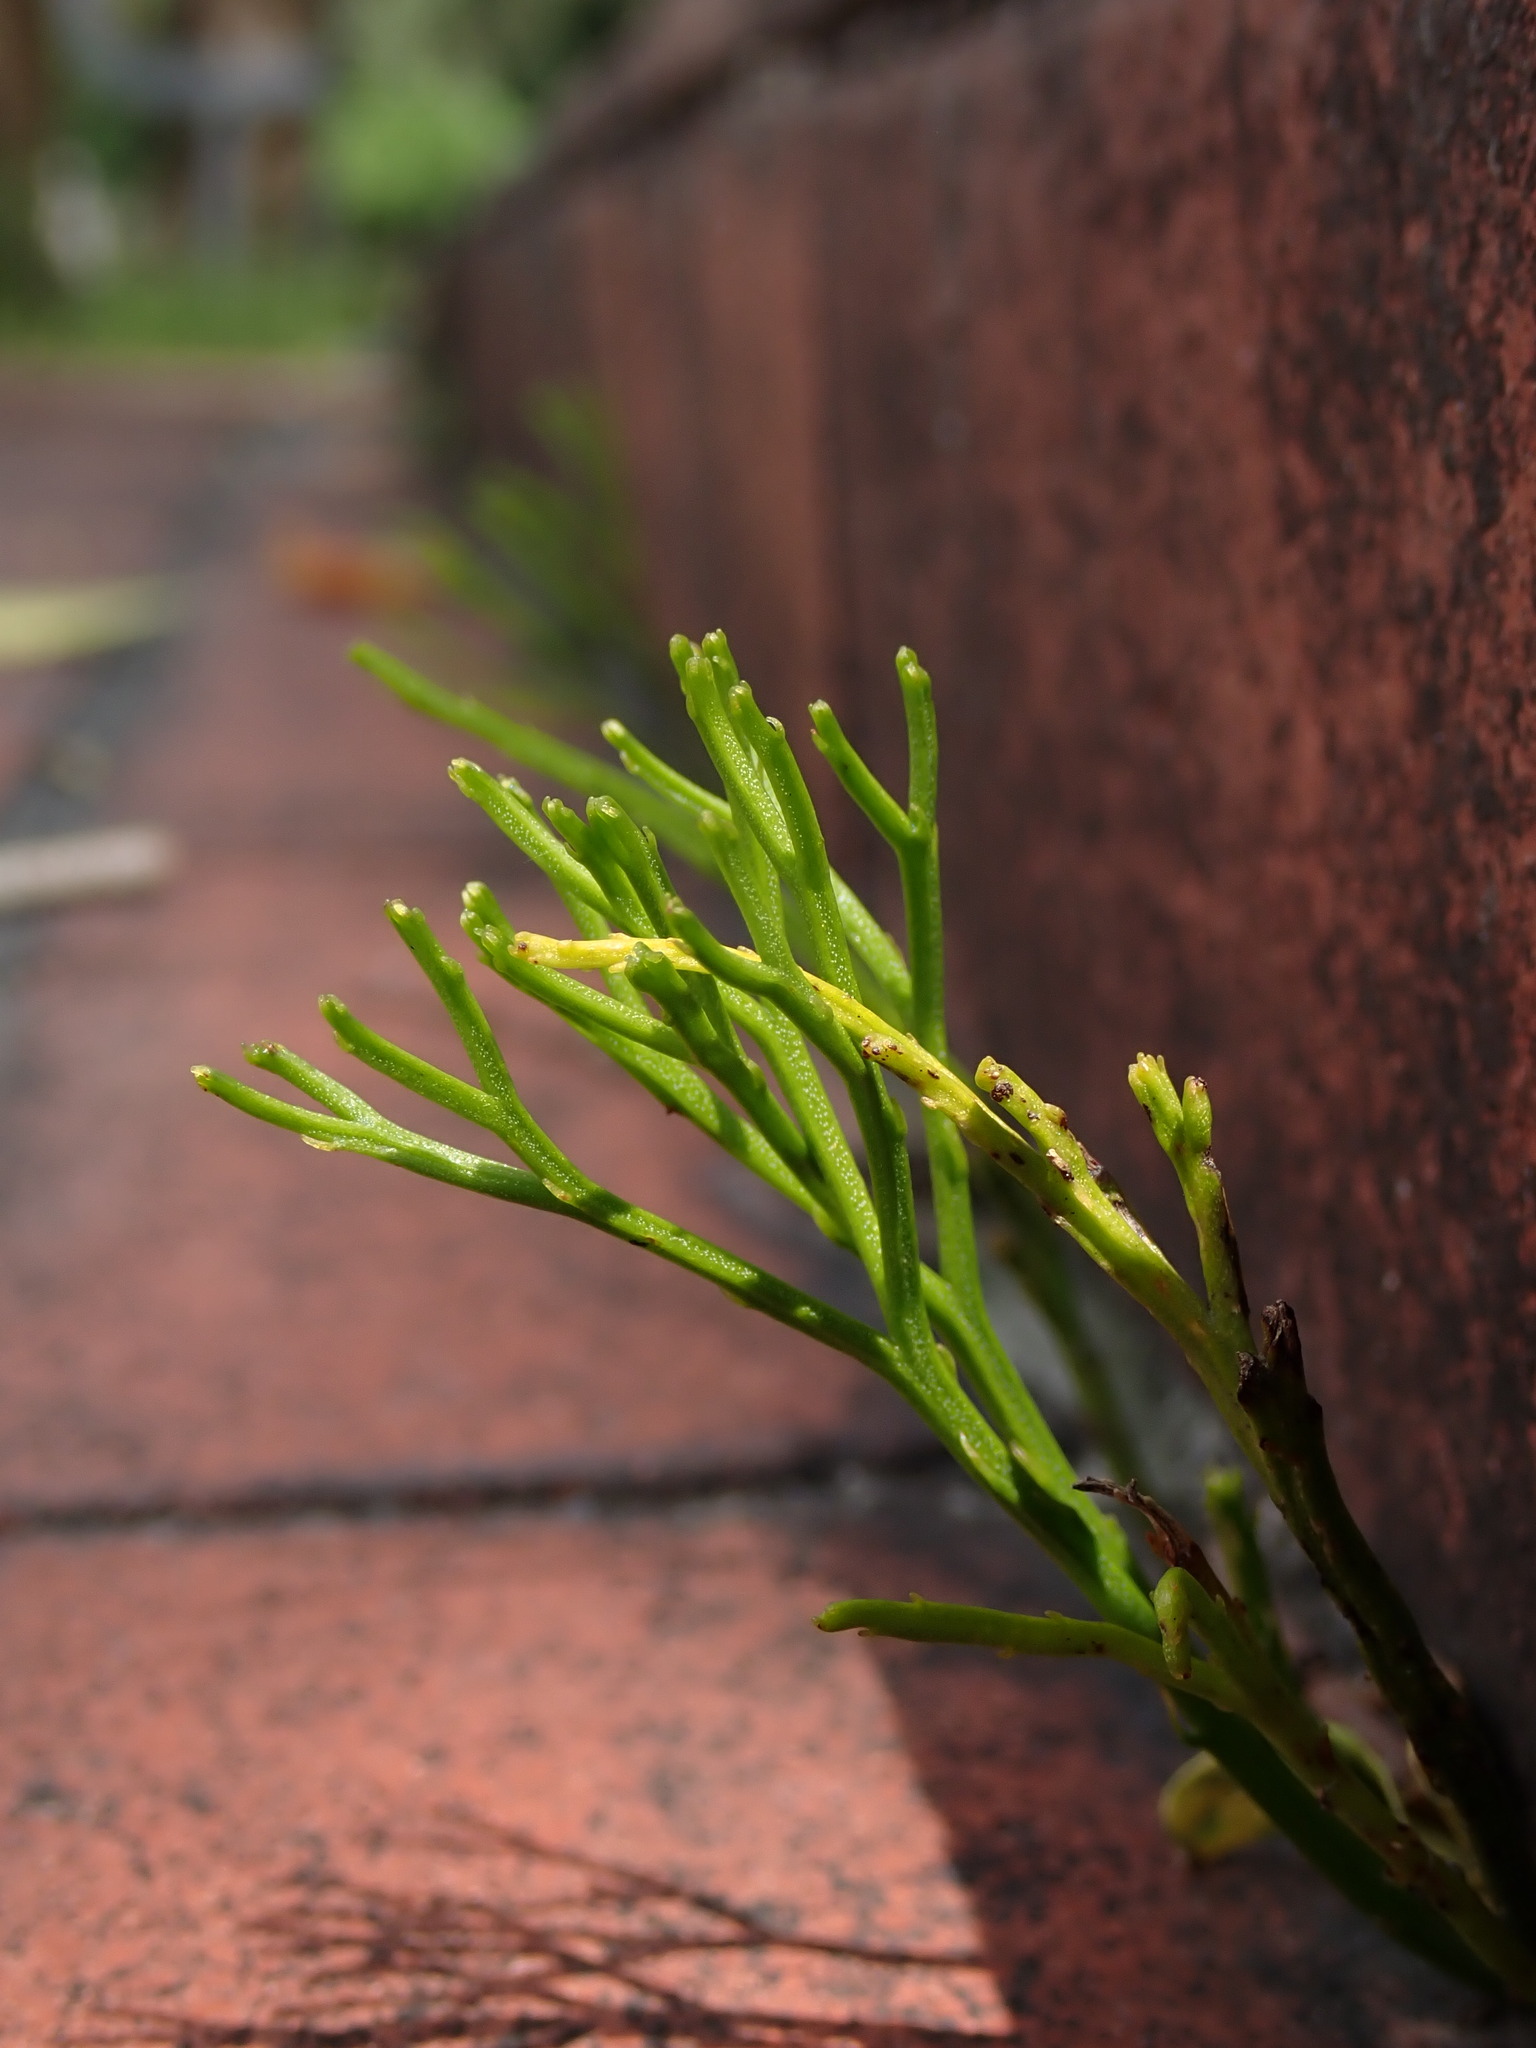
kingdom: Plantae
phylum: Tracheophyta
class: Polypodiopsida
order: Psilotales
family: Psilotaceae
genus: Psilotum
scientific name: Psilotum nudum
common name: Skeleton fork fern
